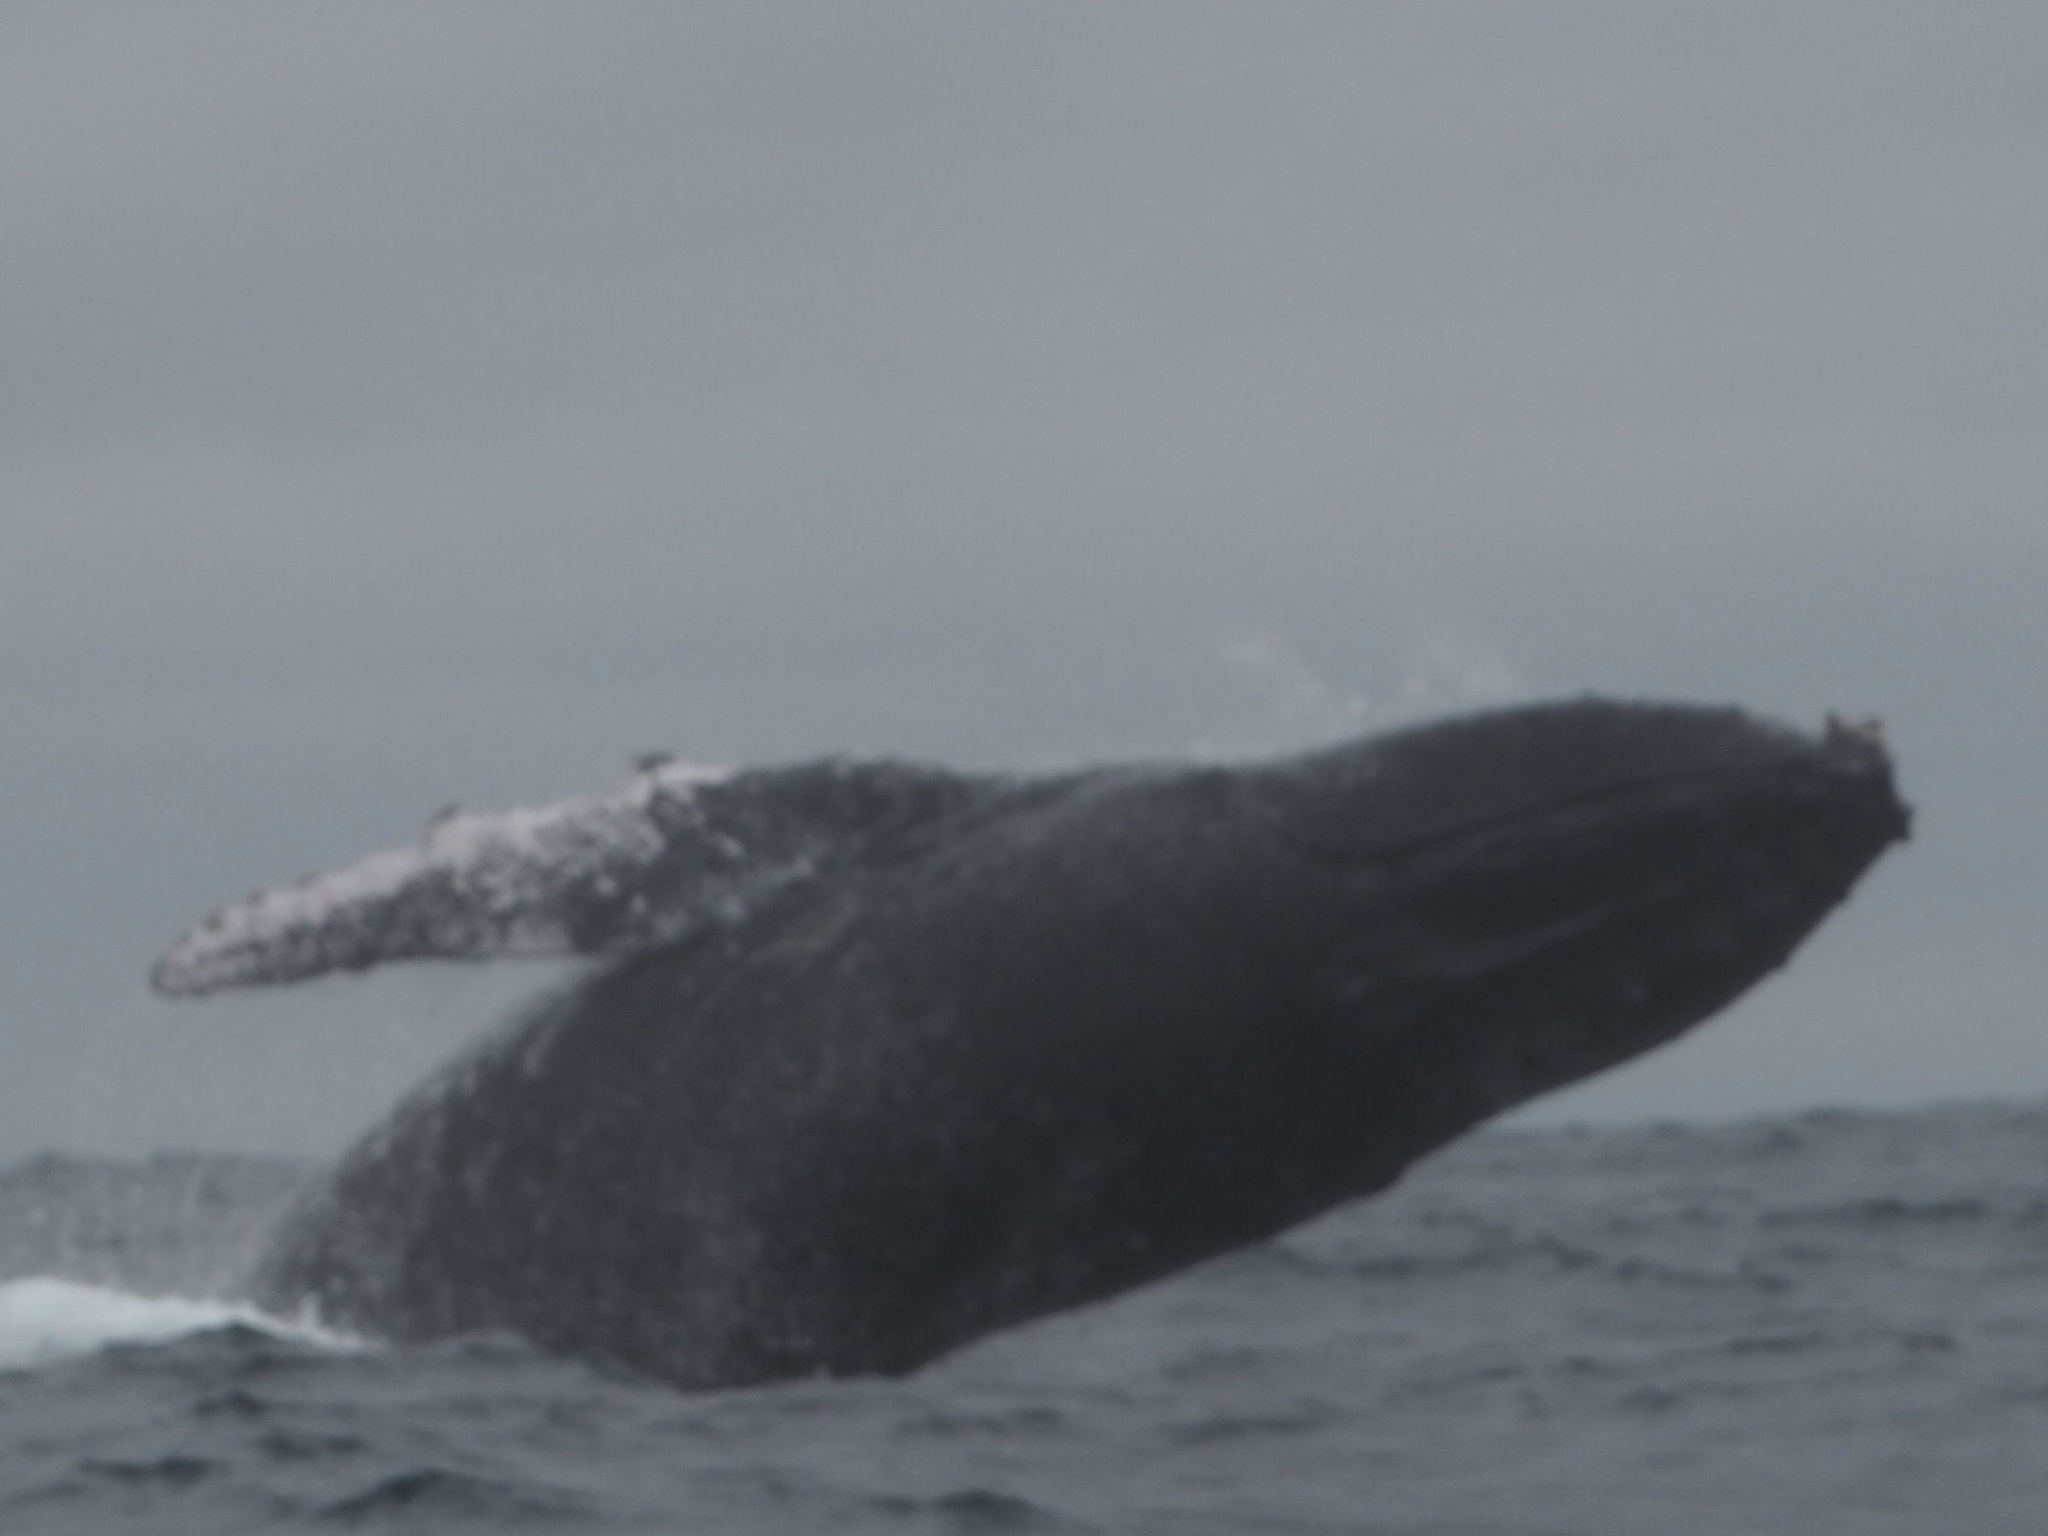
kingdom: Animalia
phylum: Chordata
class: Mammalia
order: Cetacea
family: Balaenopteridae
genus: Megaptera
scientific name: Megaptera novaeangliae
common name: Humpback whale
